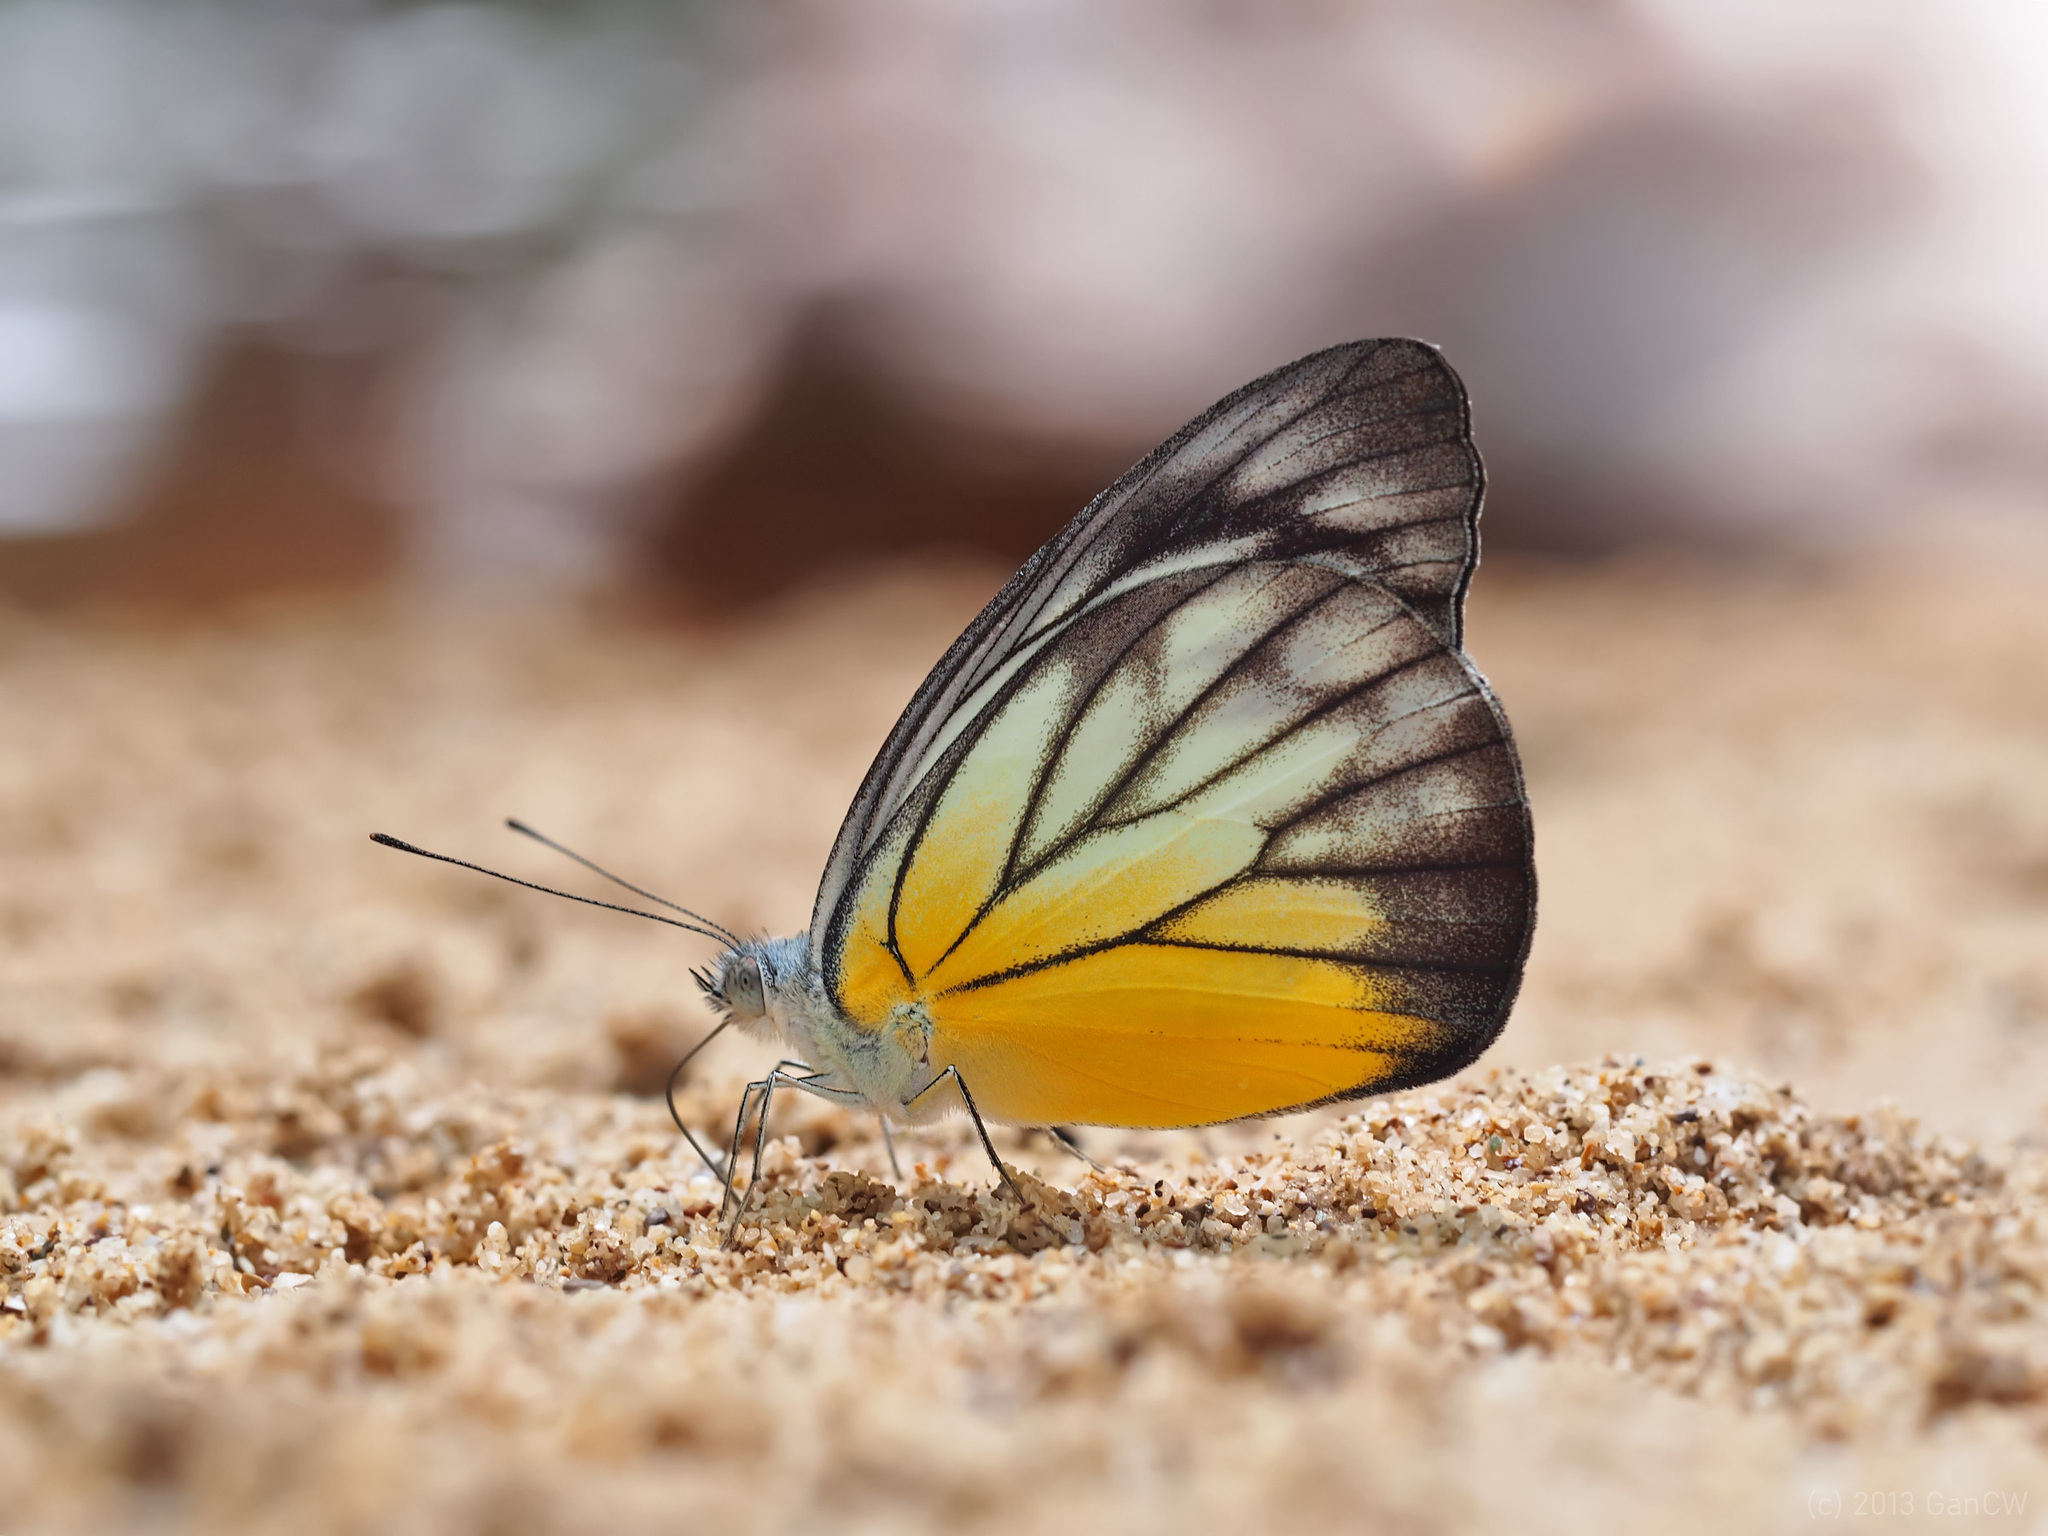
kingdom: Animalia
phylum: Arthropoda
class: Insecta
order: Lepidoptera
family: Pieridae
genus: Appias
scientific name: Appias cardena
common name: Yellow puffin
